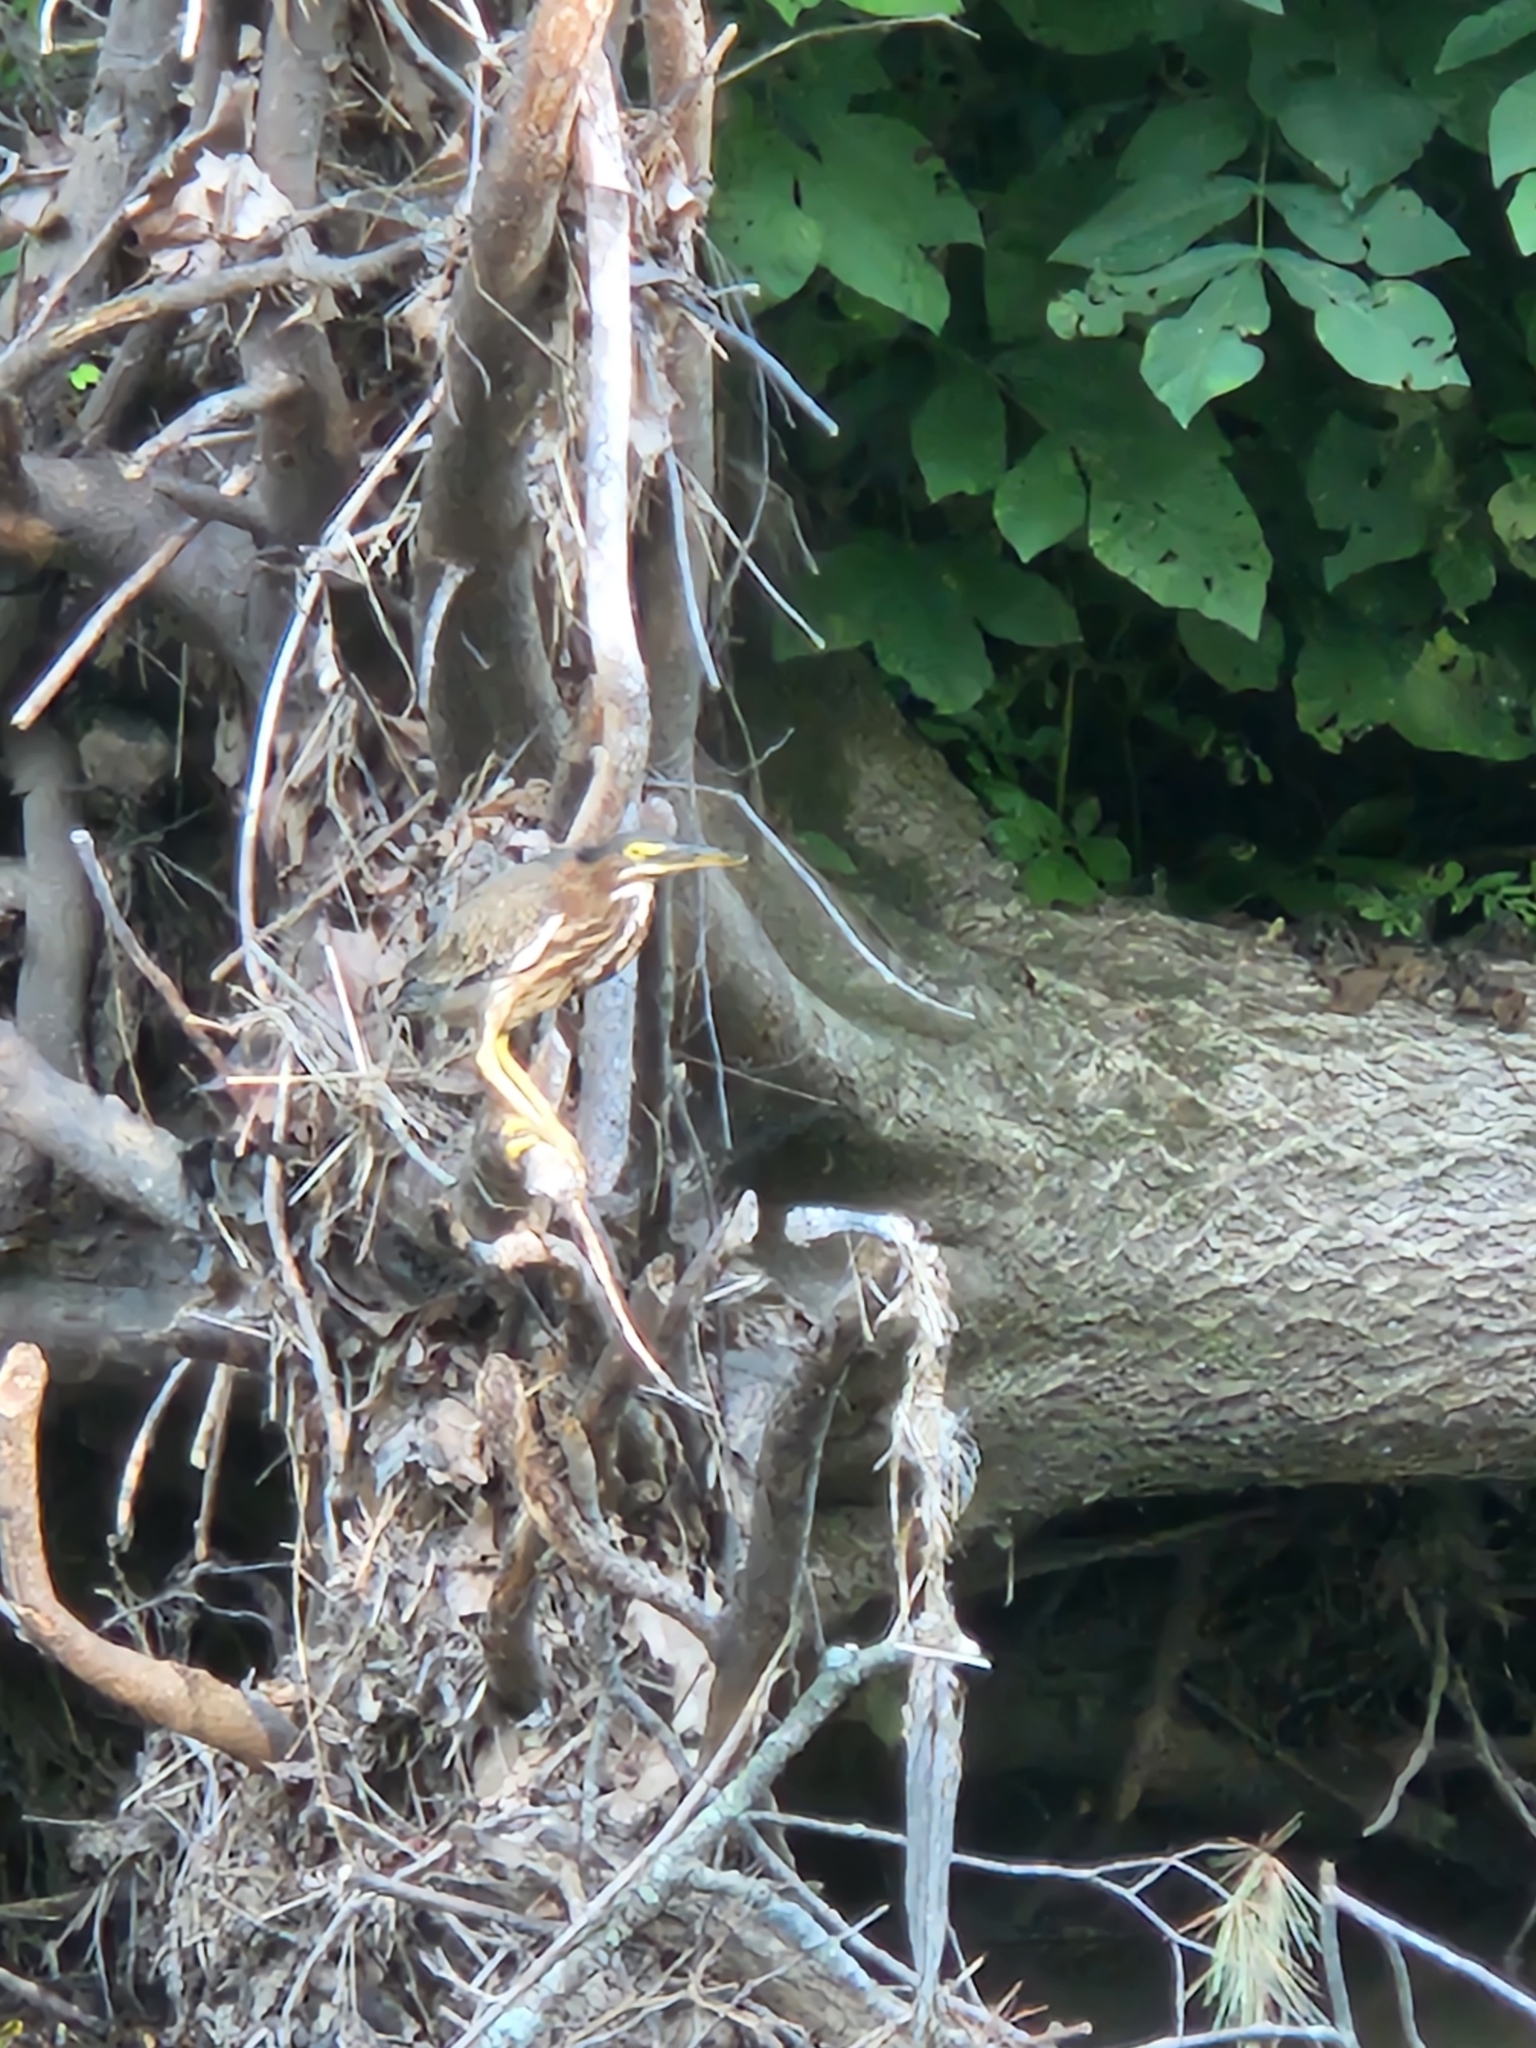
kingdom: Animalia
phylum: Chordata
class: Aves
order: Pelecaniformes
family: Ardeidae
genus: Butorides
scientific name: Butorides virescens
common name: Green heron
